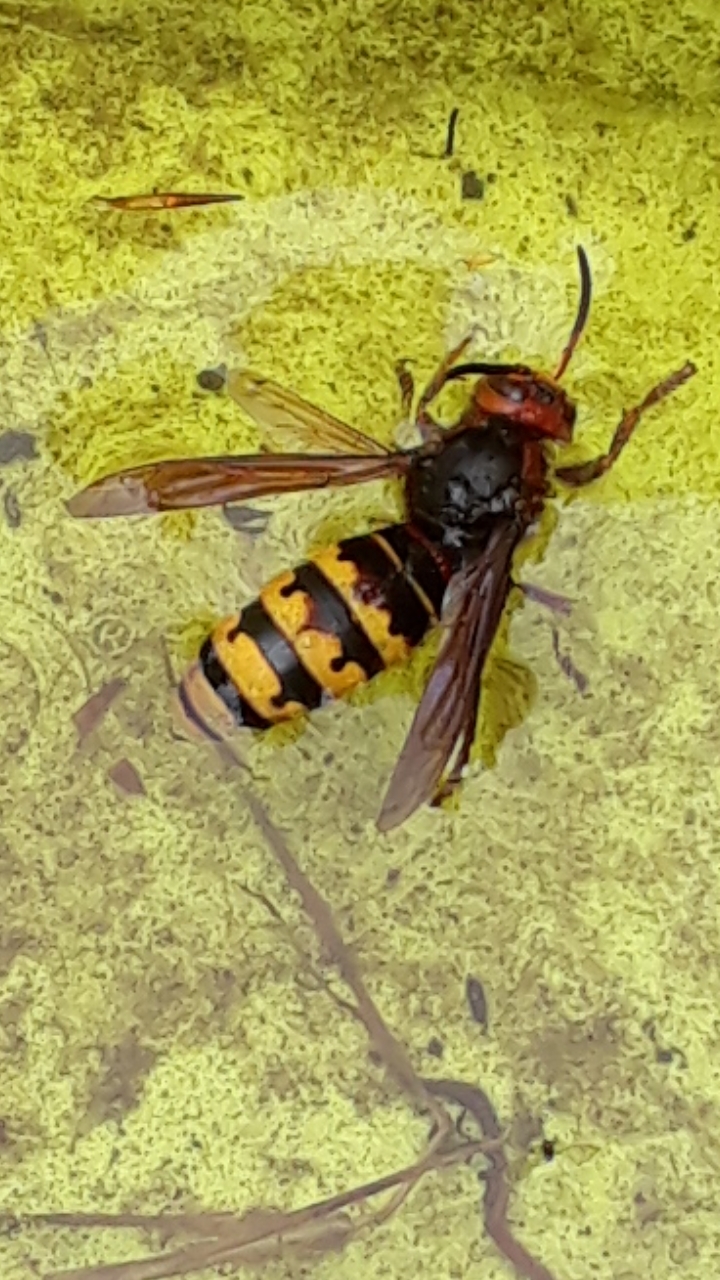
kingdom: Animalia
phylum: Arthropoda
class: Insecta
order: Hymenoptera
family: Vespidae
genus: Vespa
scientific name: Vespa crabro
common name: Hornet
